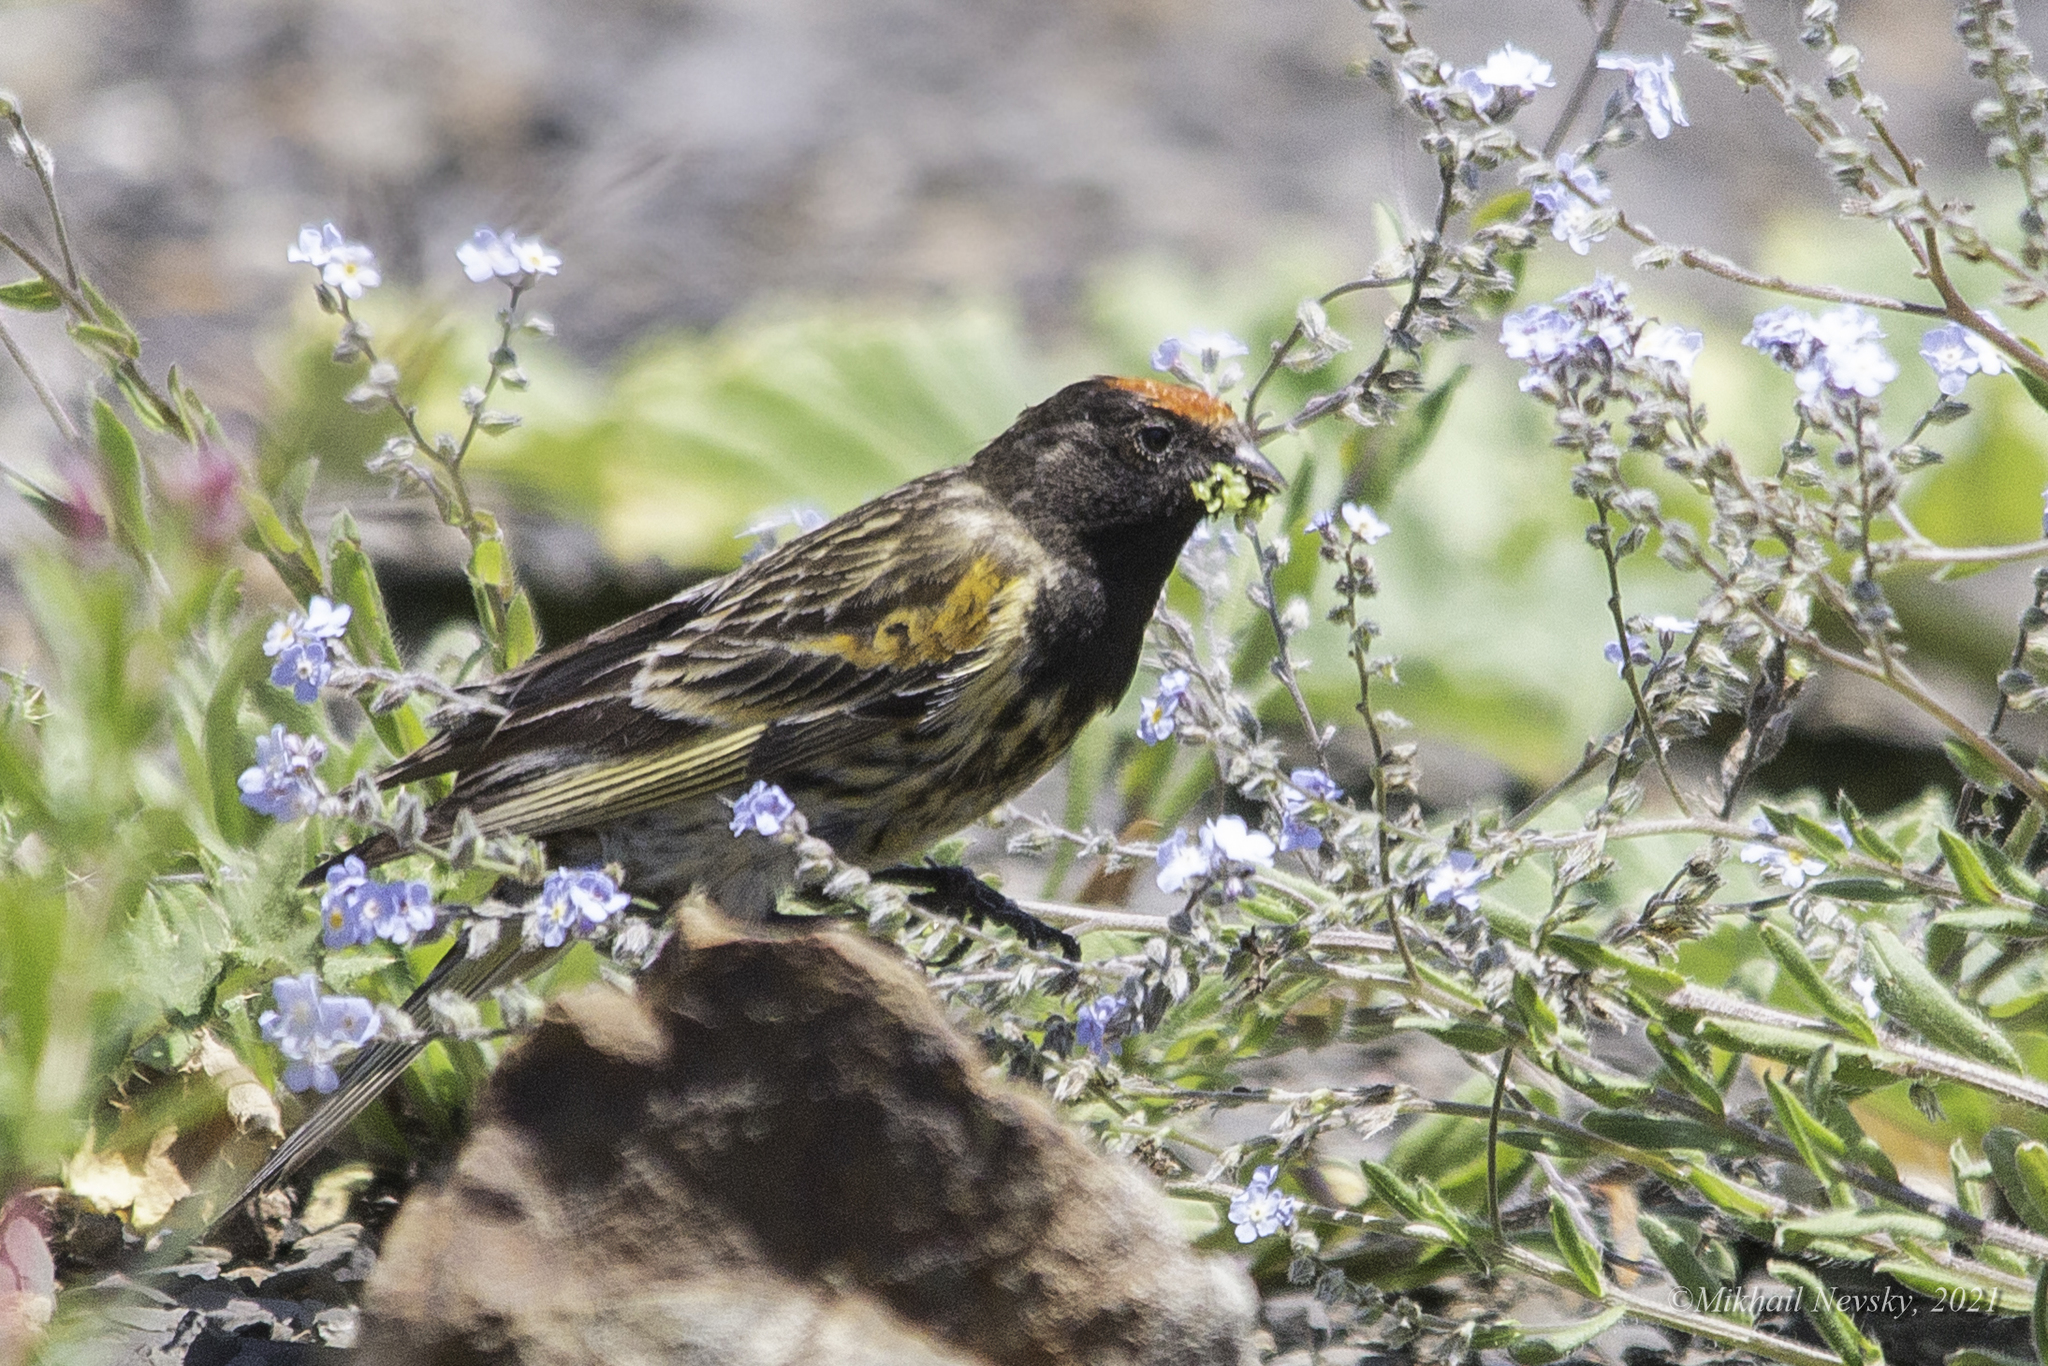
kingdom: Animalia
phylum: Chordata
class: Aves
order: Passeriformes
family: Fringillidae
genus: Serinus
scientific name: Serinus pusillus
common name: Red-fronted serin
